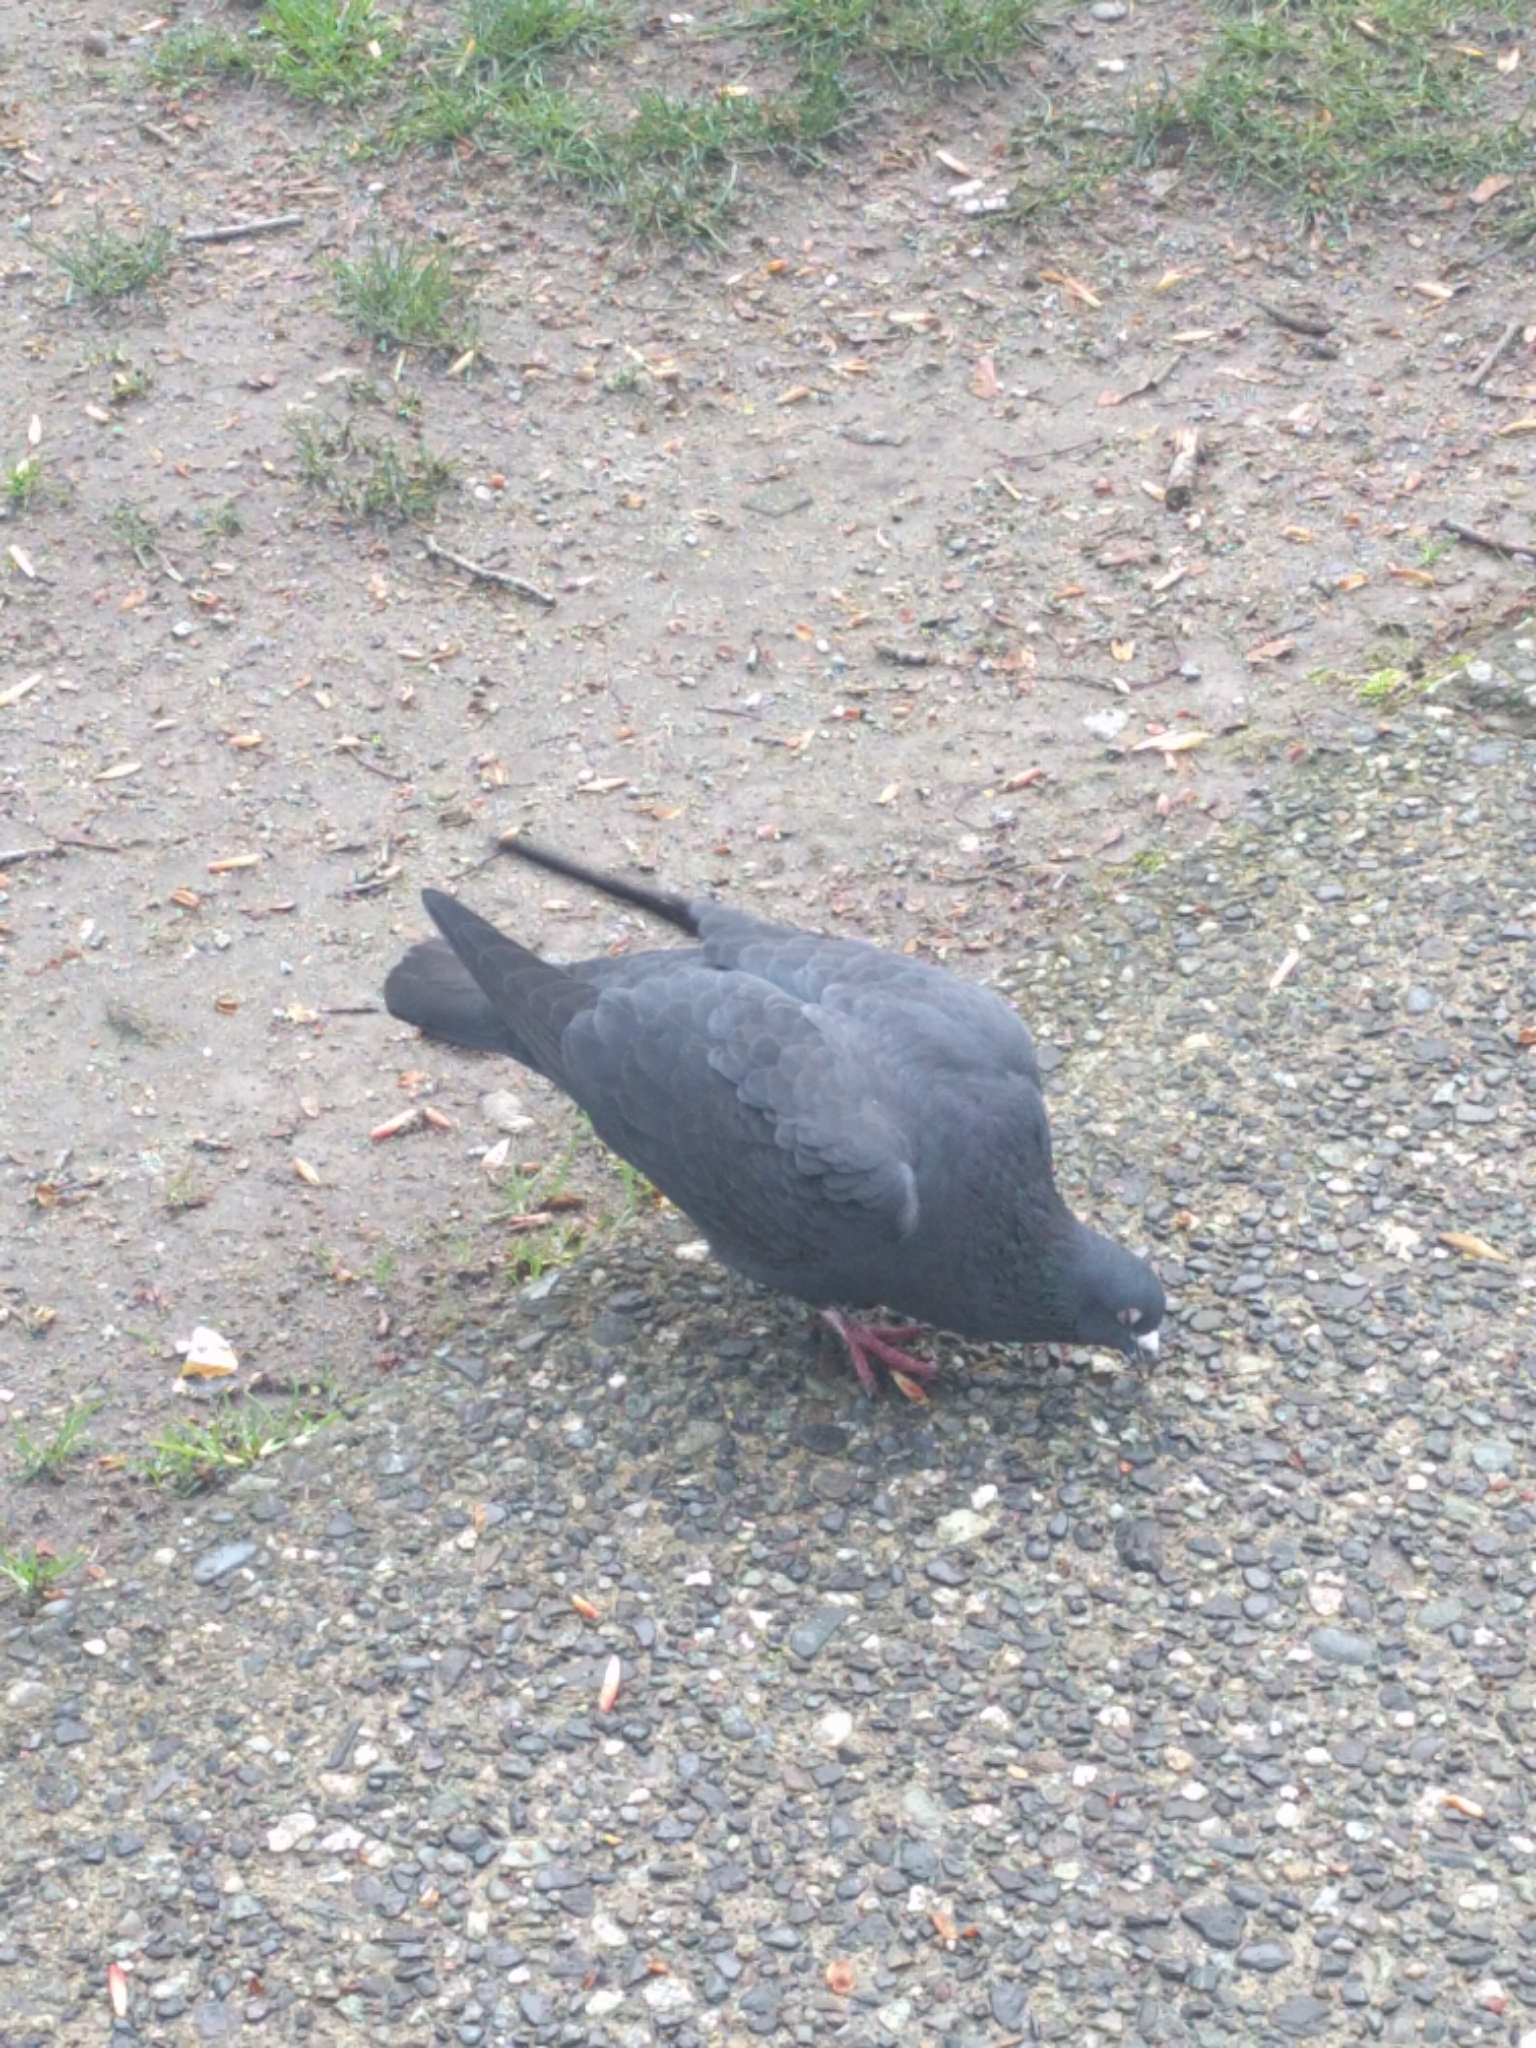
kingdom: Animalia
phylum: Chordata
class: Aves
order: Columbiformes
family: Columbidae
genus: Columba
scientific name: Columba livia
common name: Rock pigeon
